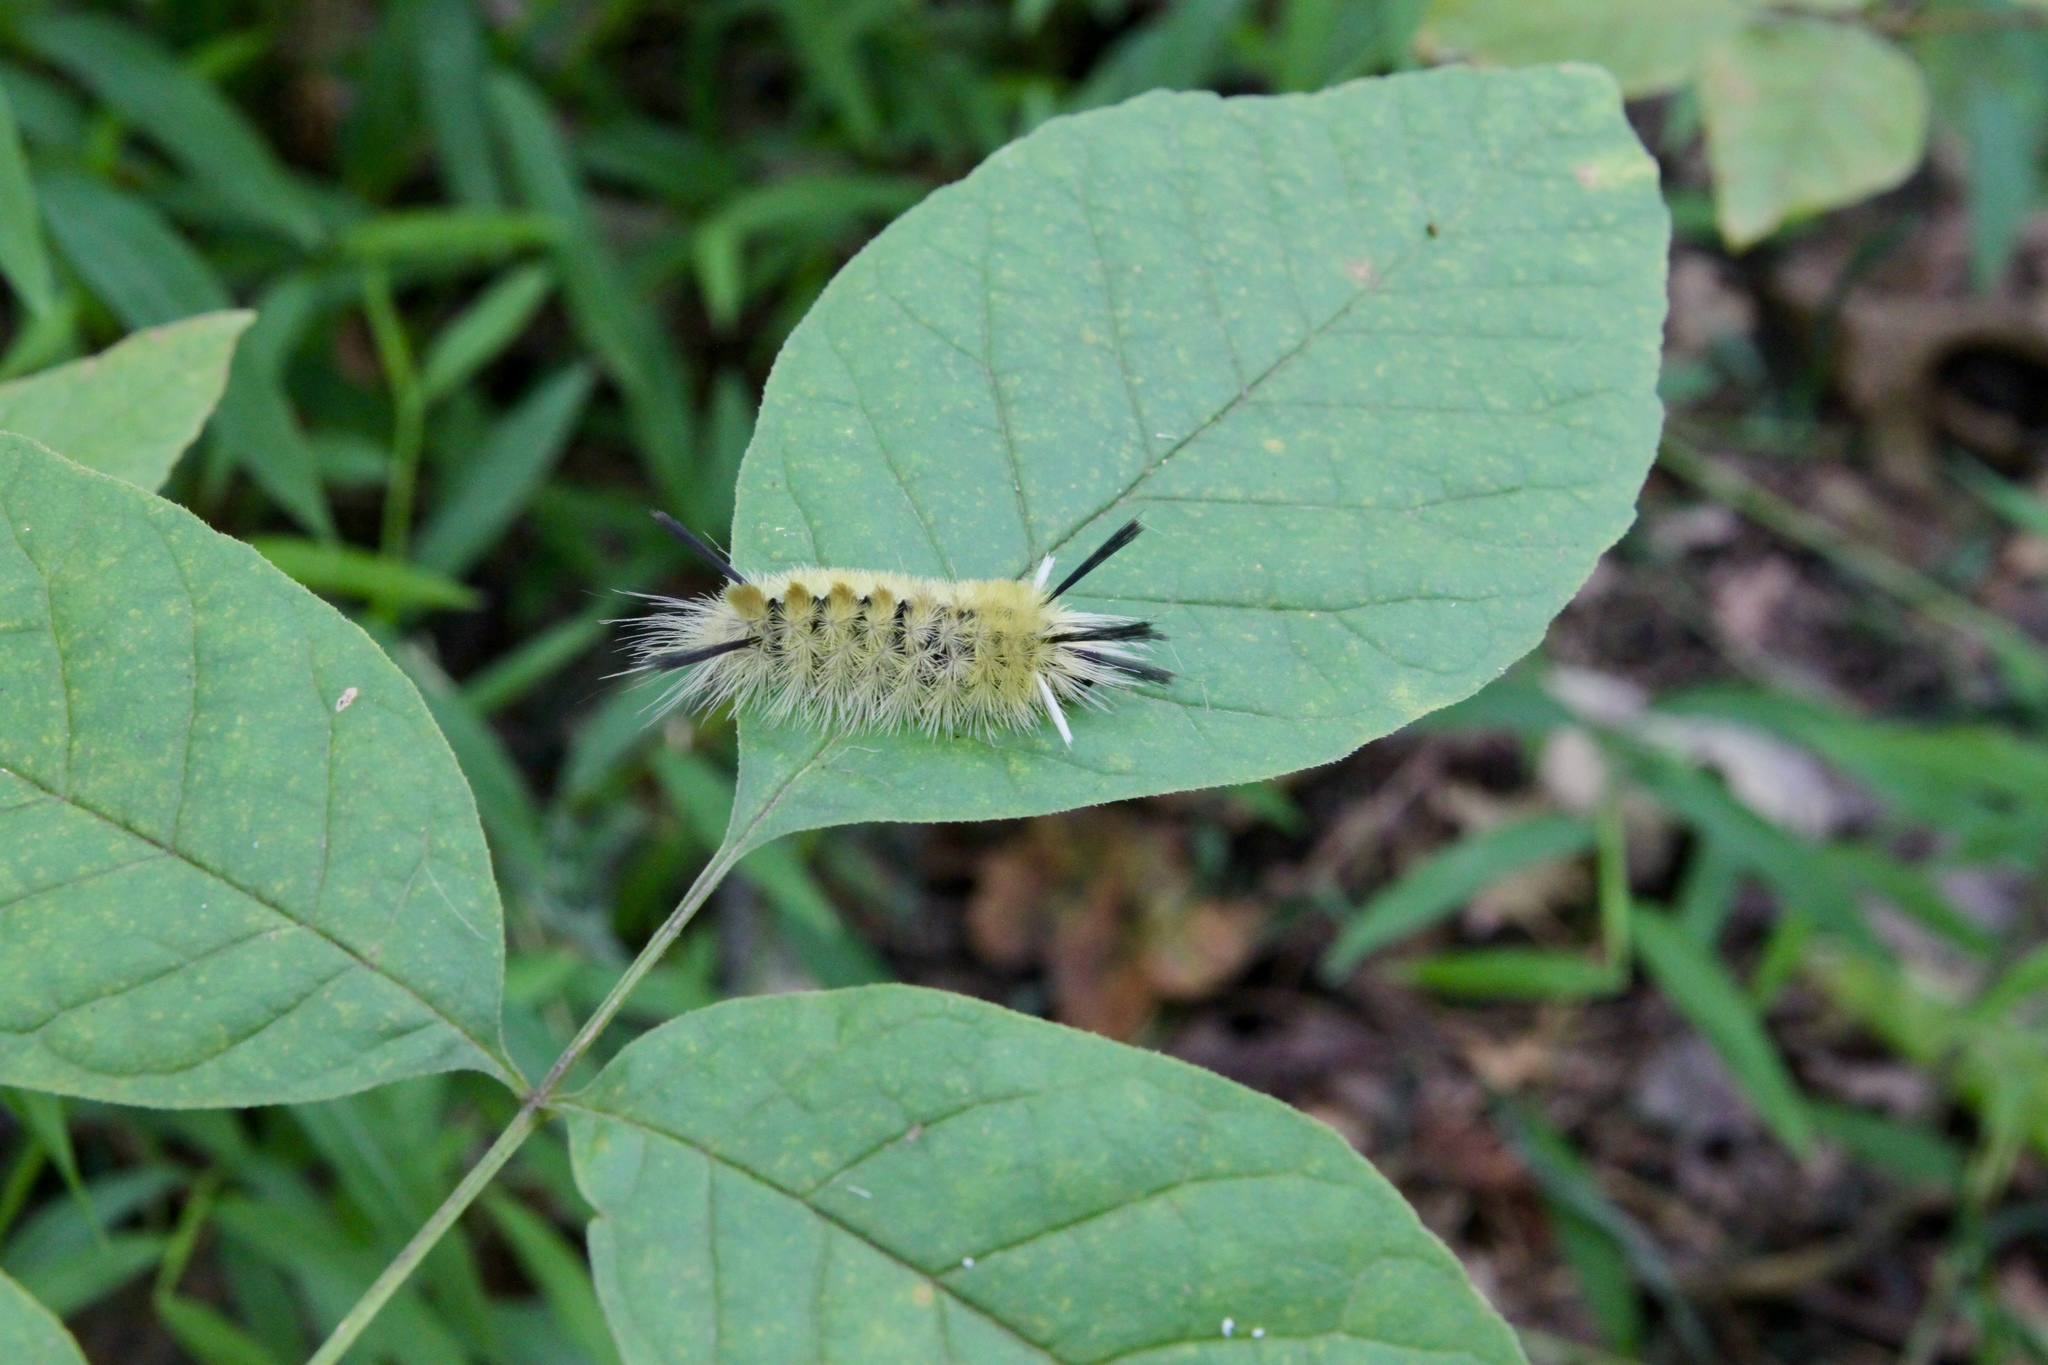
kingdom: Animalia
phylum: Arthropoda
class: Insecta
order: Lepidoptera
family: Erebidae
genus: Halysidota
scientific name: Halysidota tessellaris
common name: Banded tussock moth
